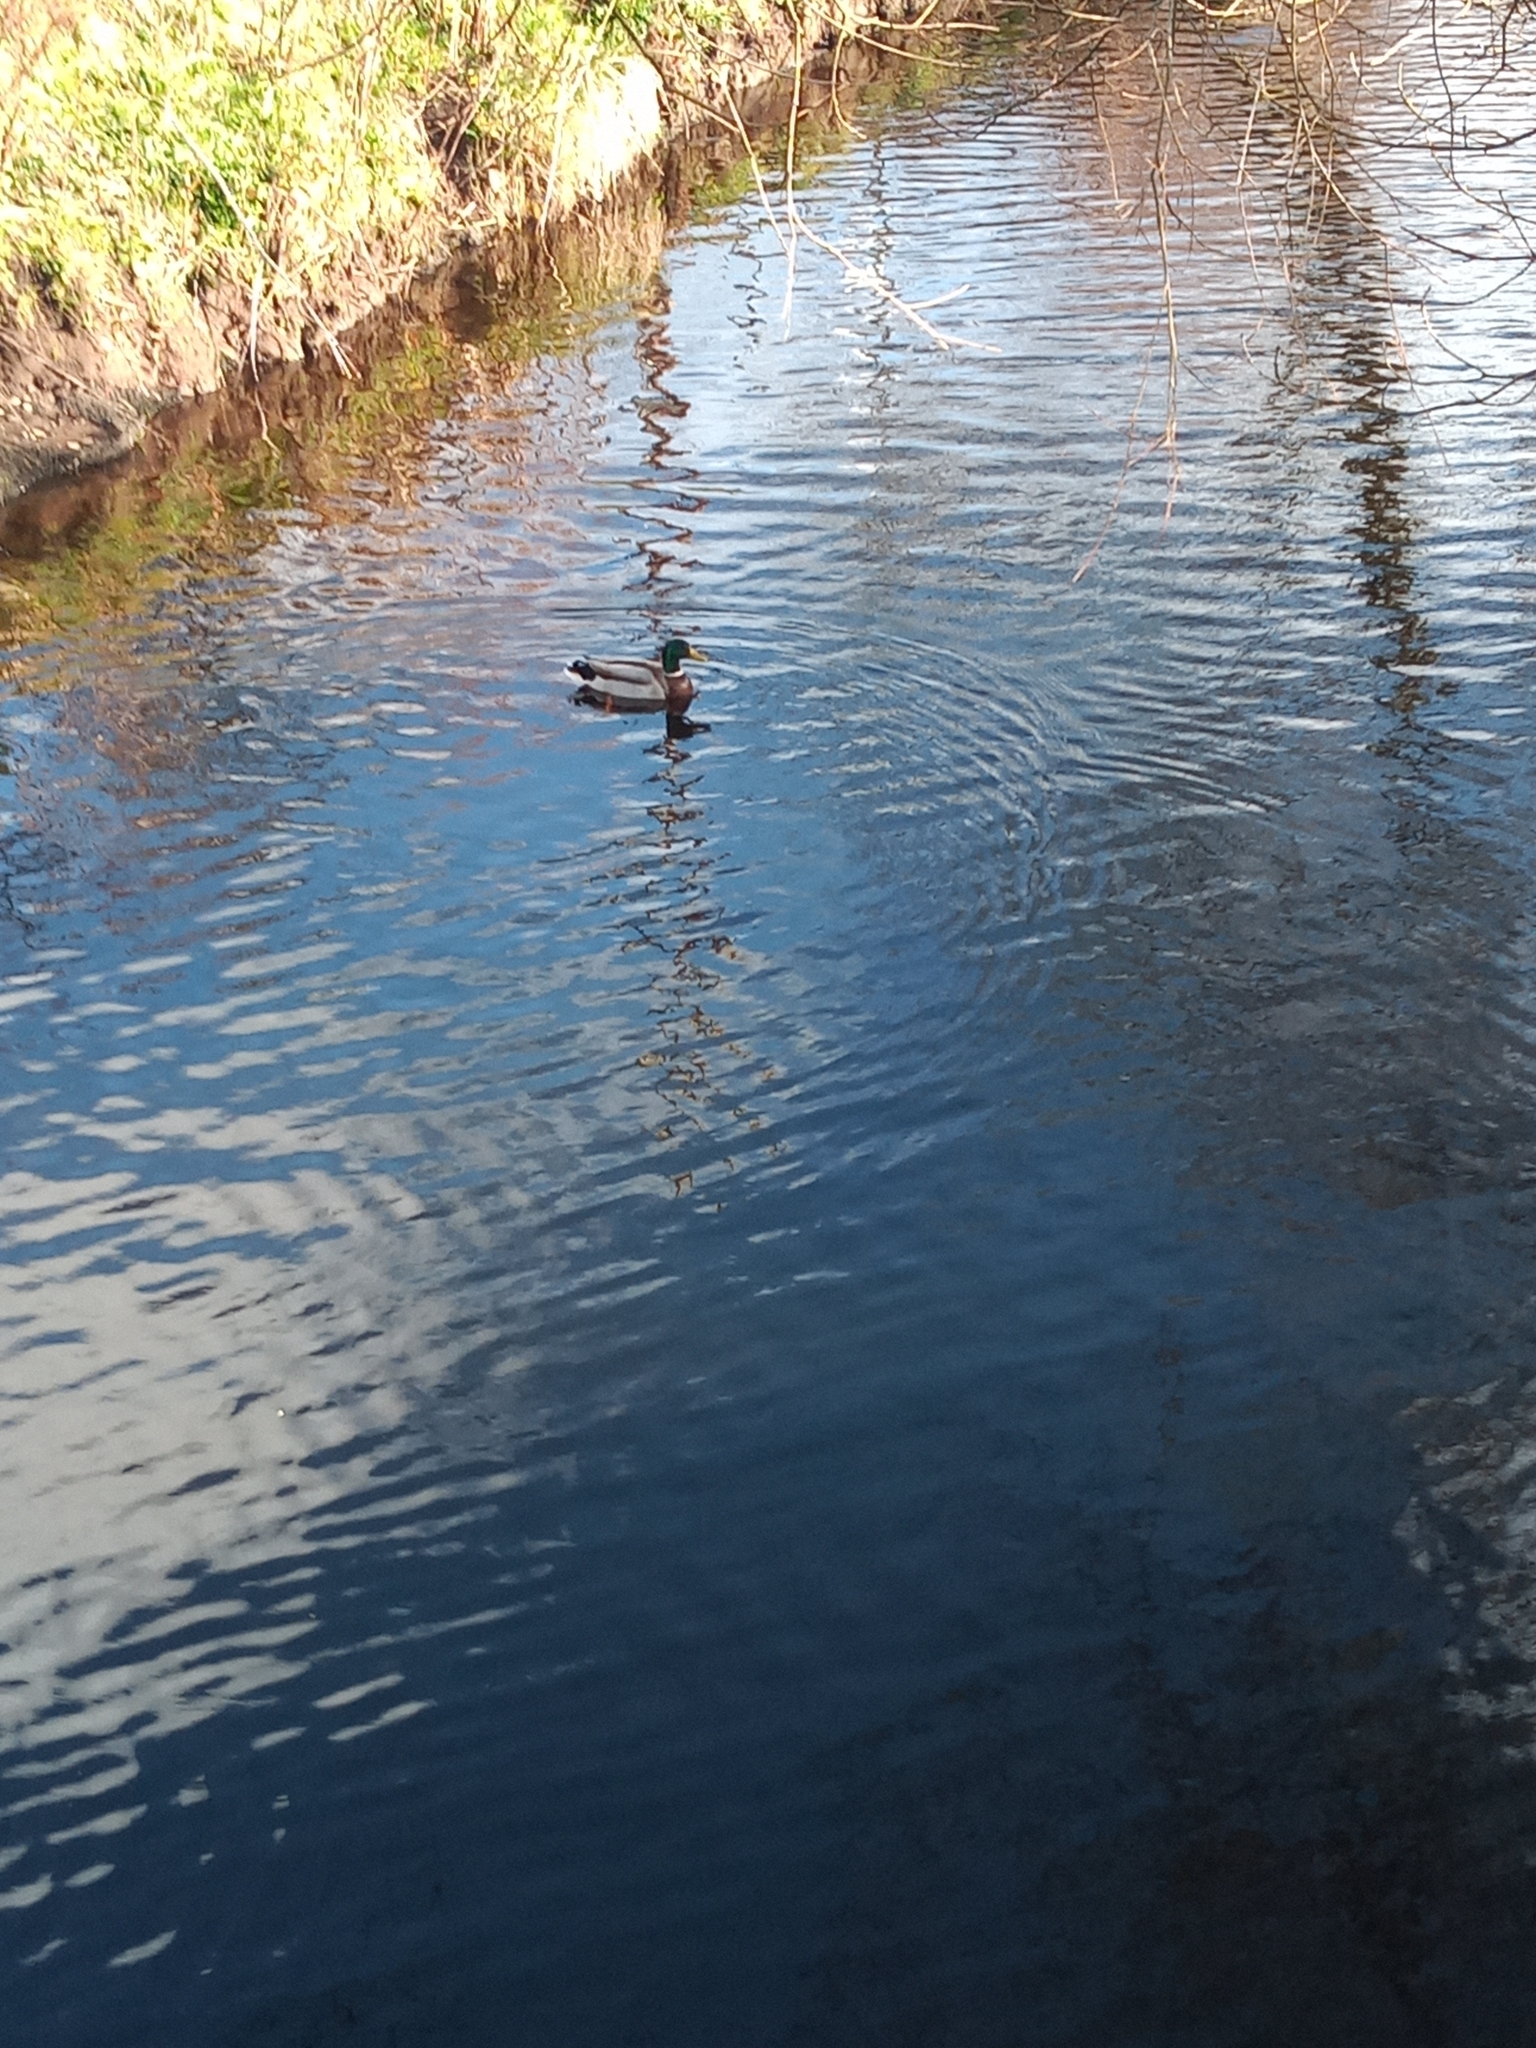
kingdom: Animalia
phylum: Chordata
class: Aves
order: Anseriformes
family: Anatidae
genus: Anas
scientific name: Anas platyrhynchos
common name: Mallard
